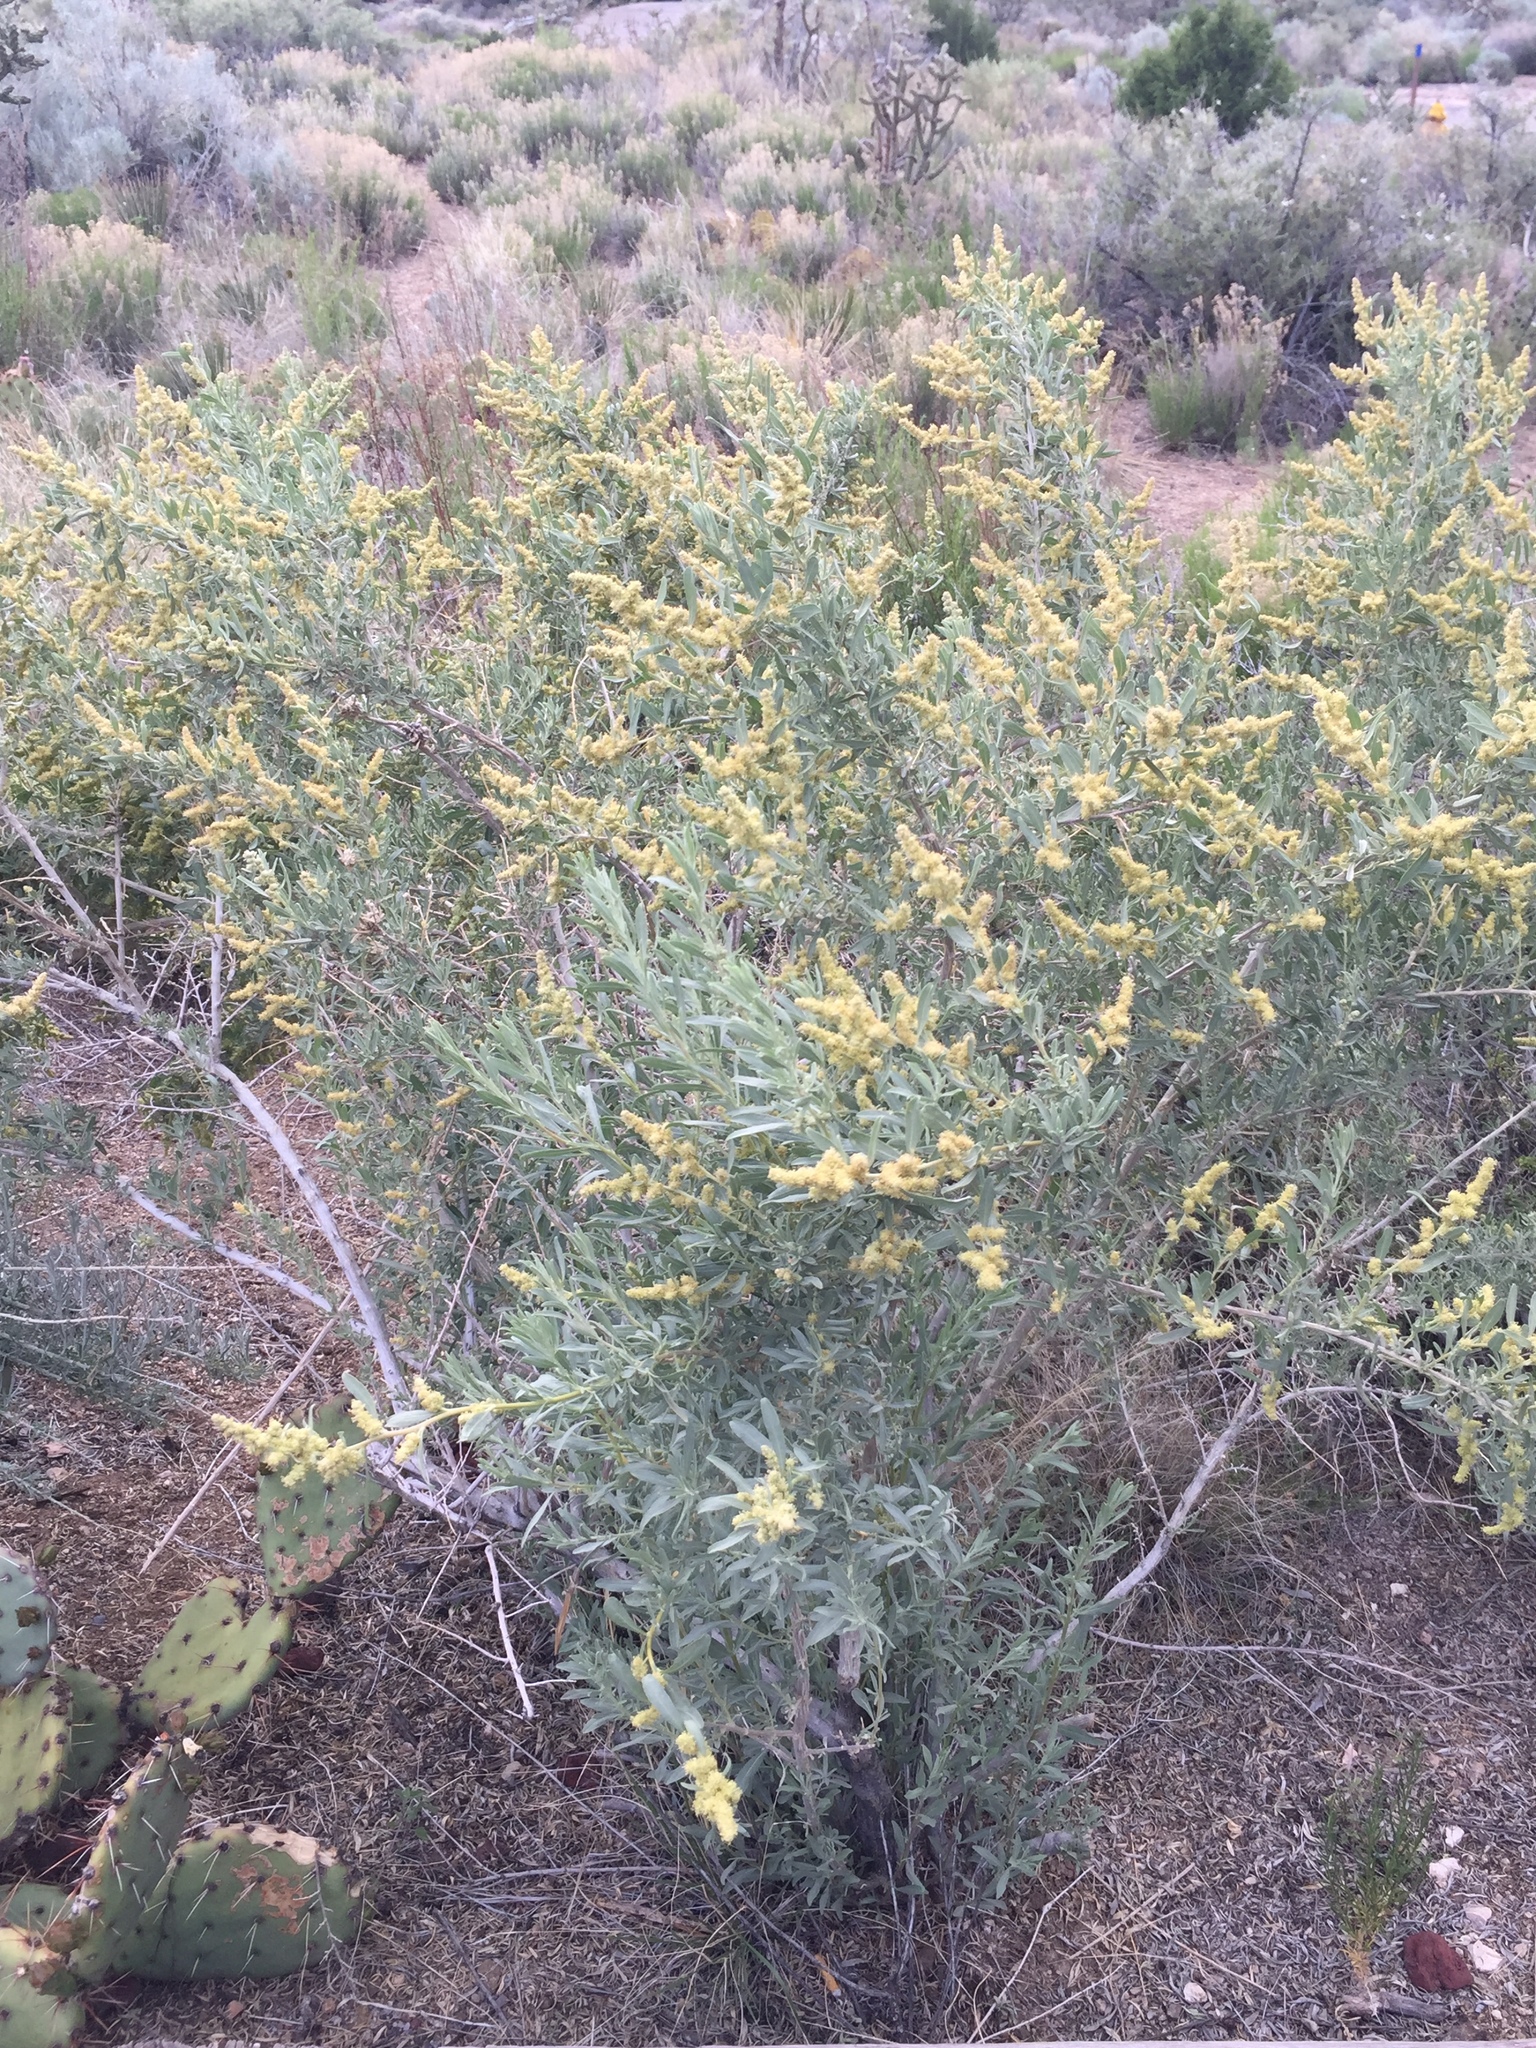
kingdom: Plantae
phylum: Tracheophyta
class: Magnoliopsida
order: Caryophyllales
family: Amaranthaceae
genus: Atriplex
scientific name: Atriplex canescens
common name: Four-wing saltbush
